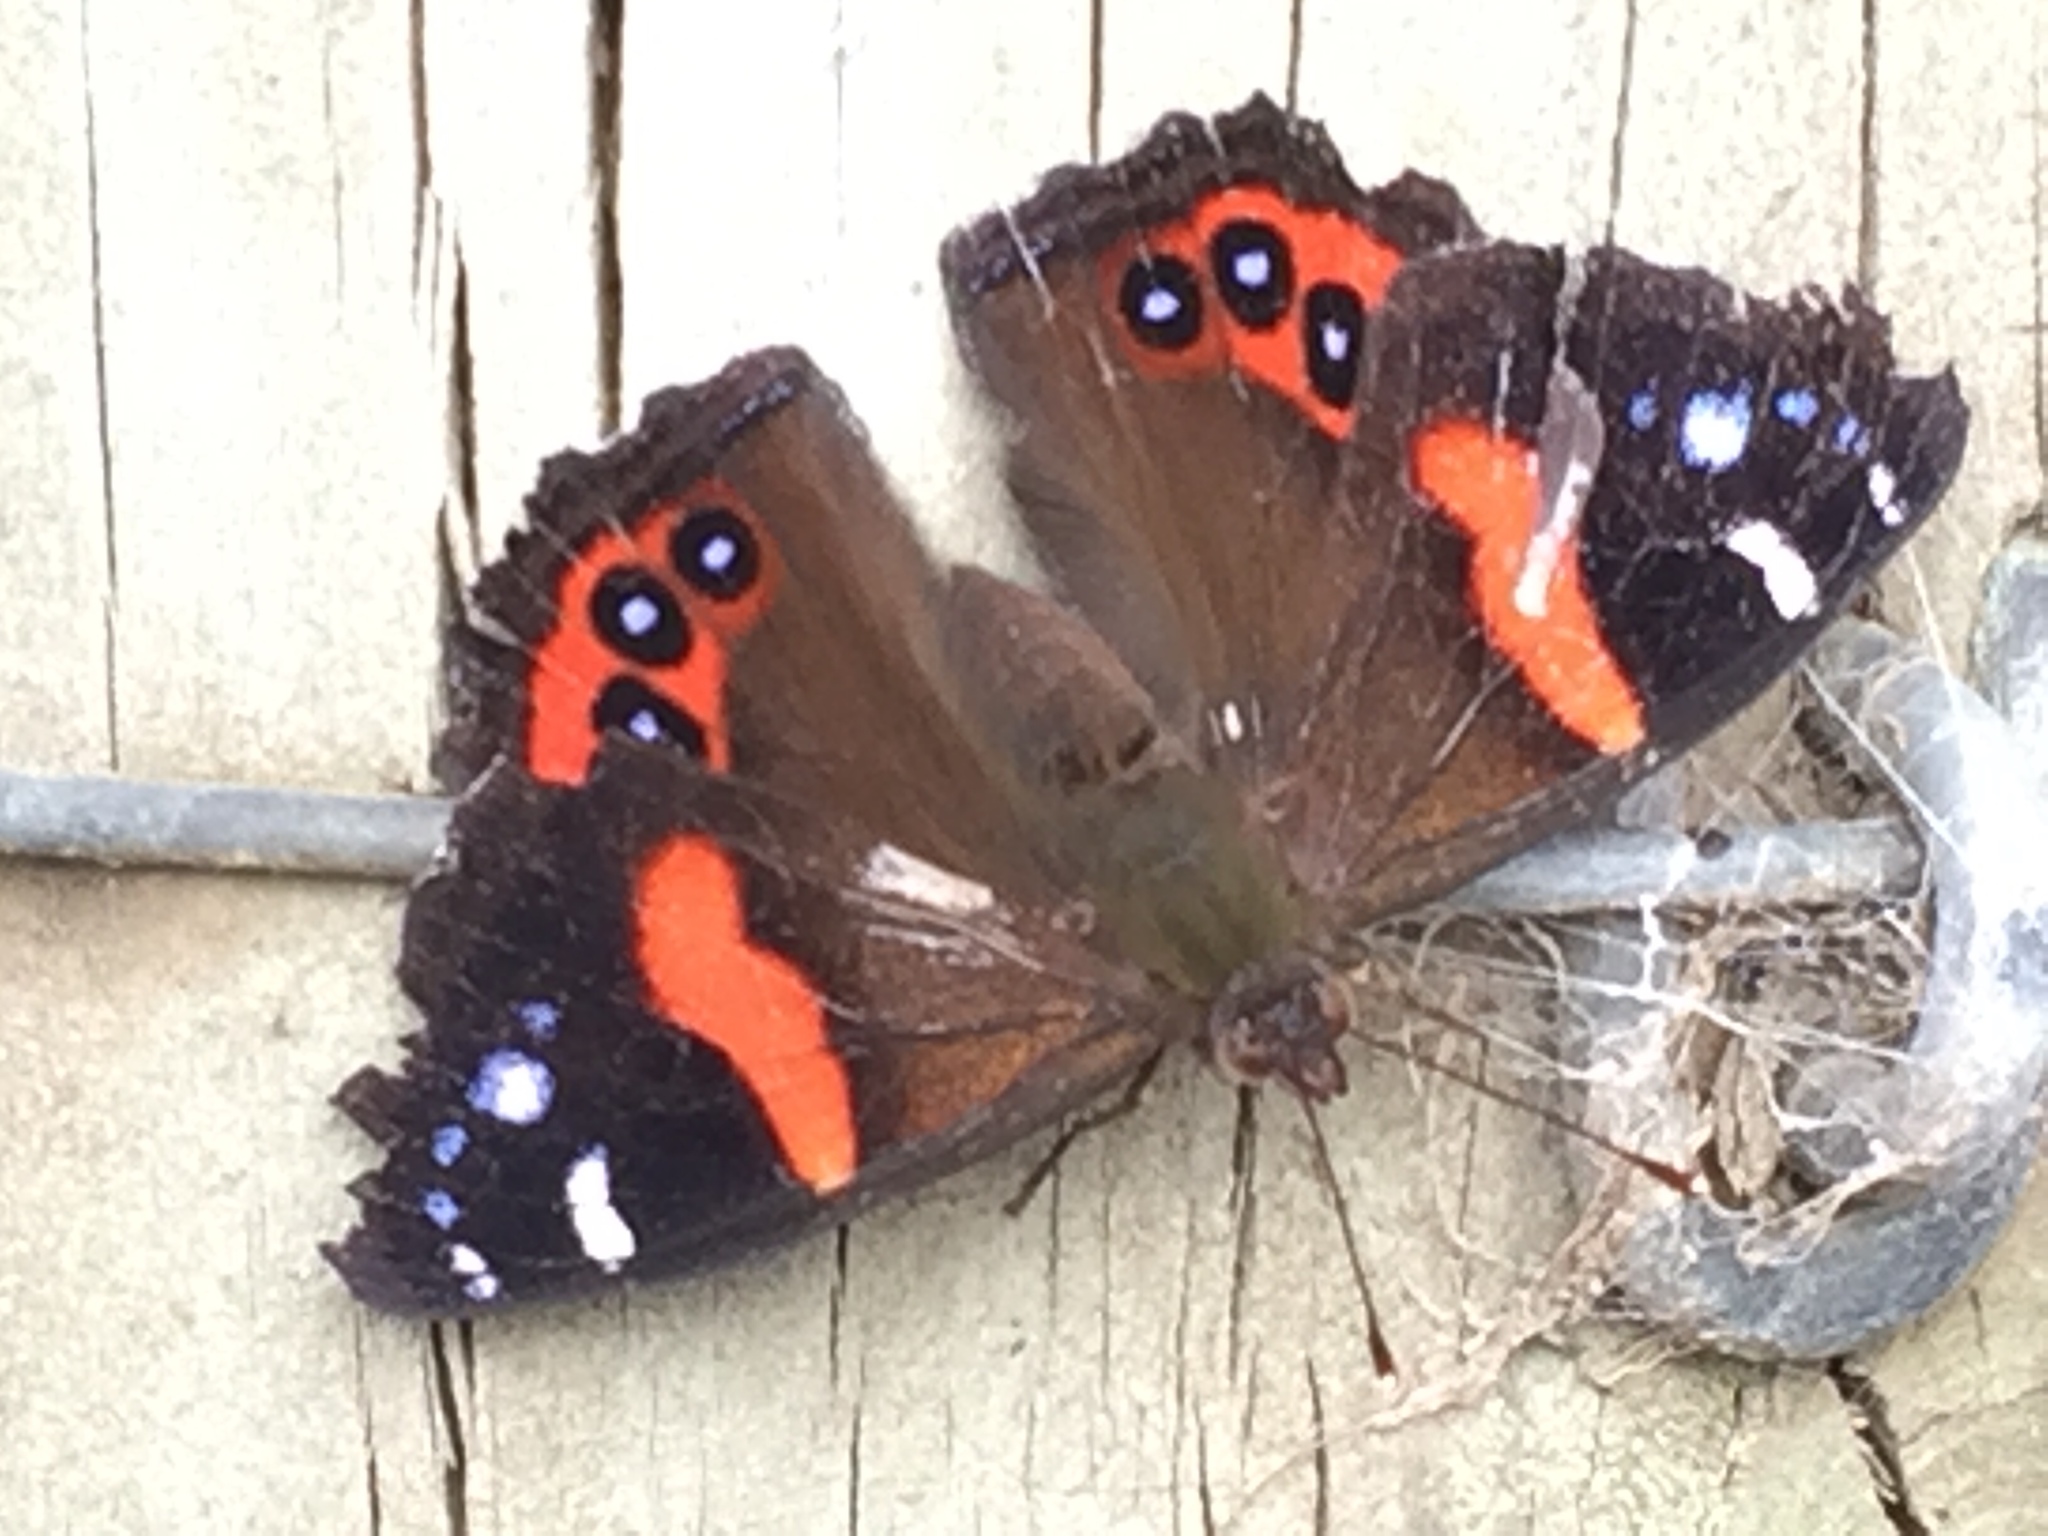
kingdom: Animalia
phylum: Arthropoda
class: Insecta
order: Lepidoptera
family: Nymphalidae
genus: Vanessa
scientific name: Vanessa gonerilla
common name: New zealand red admiral
